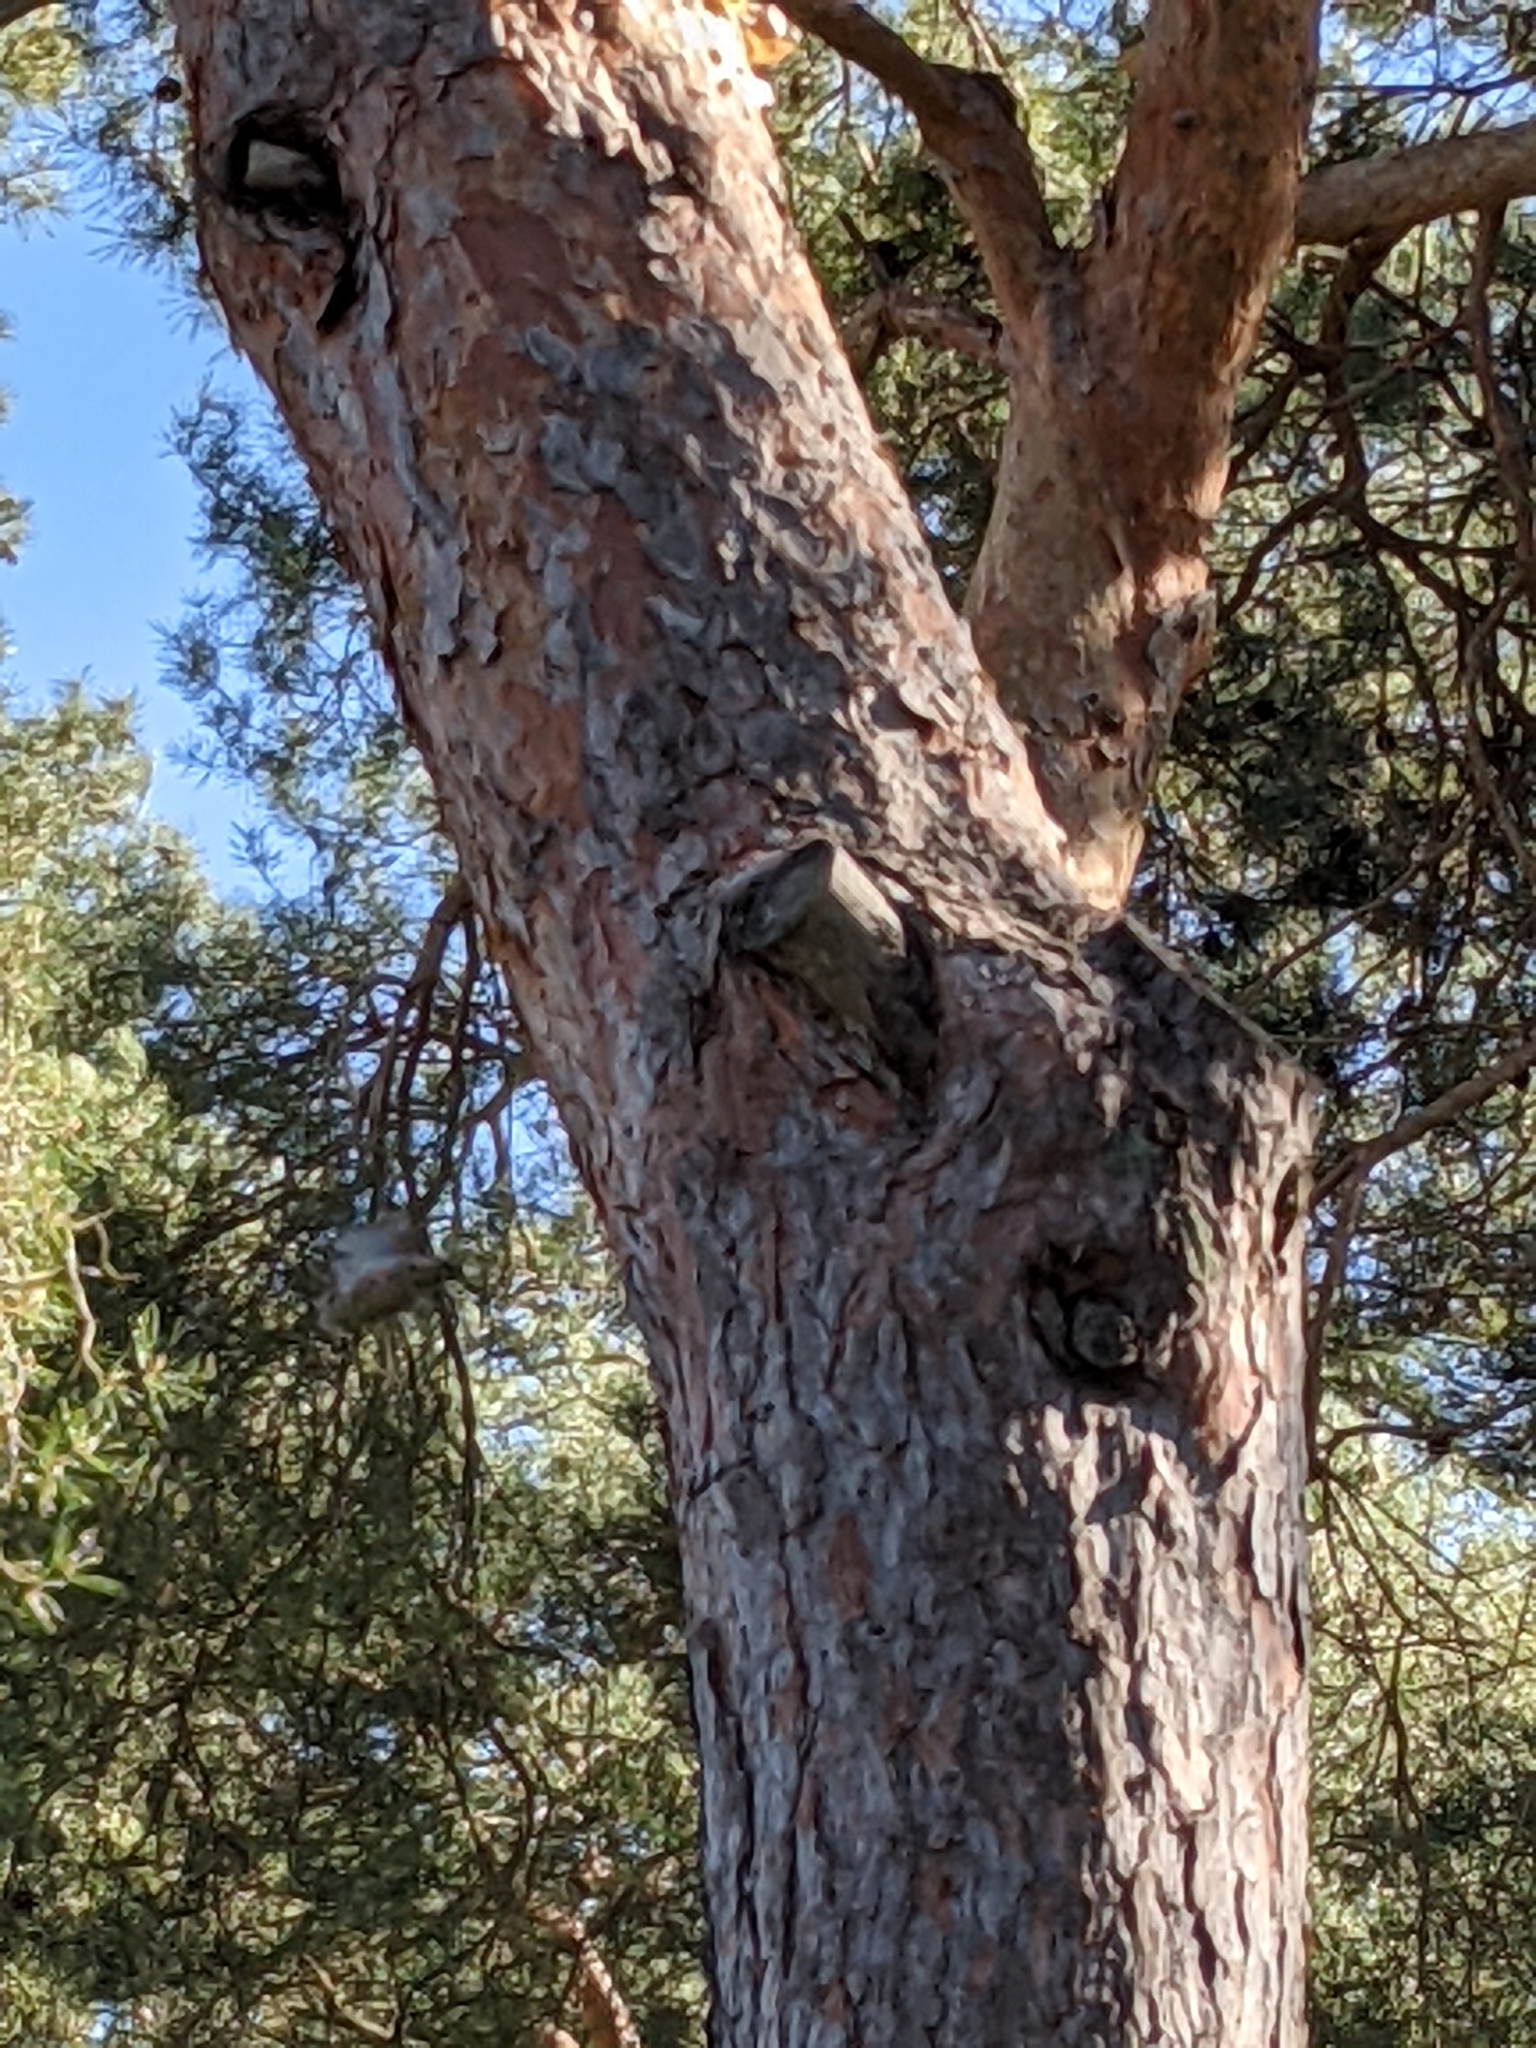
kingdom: Animalia
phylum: Chordata
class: Aves
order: Passeriformes
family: Sittidae
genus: Sitta
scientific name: Sitta canadensis
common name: Red-breasted nuthatch
